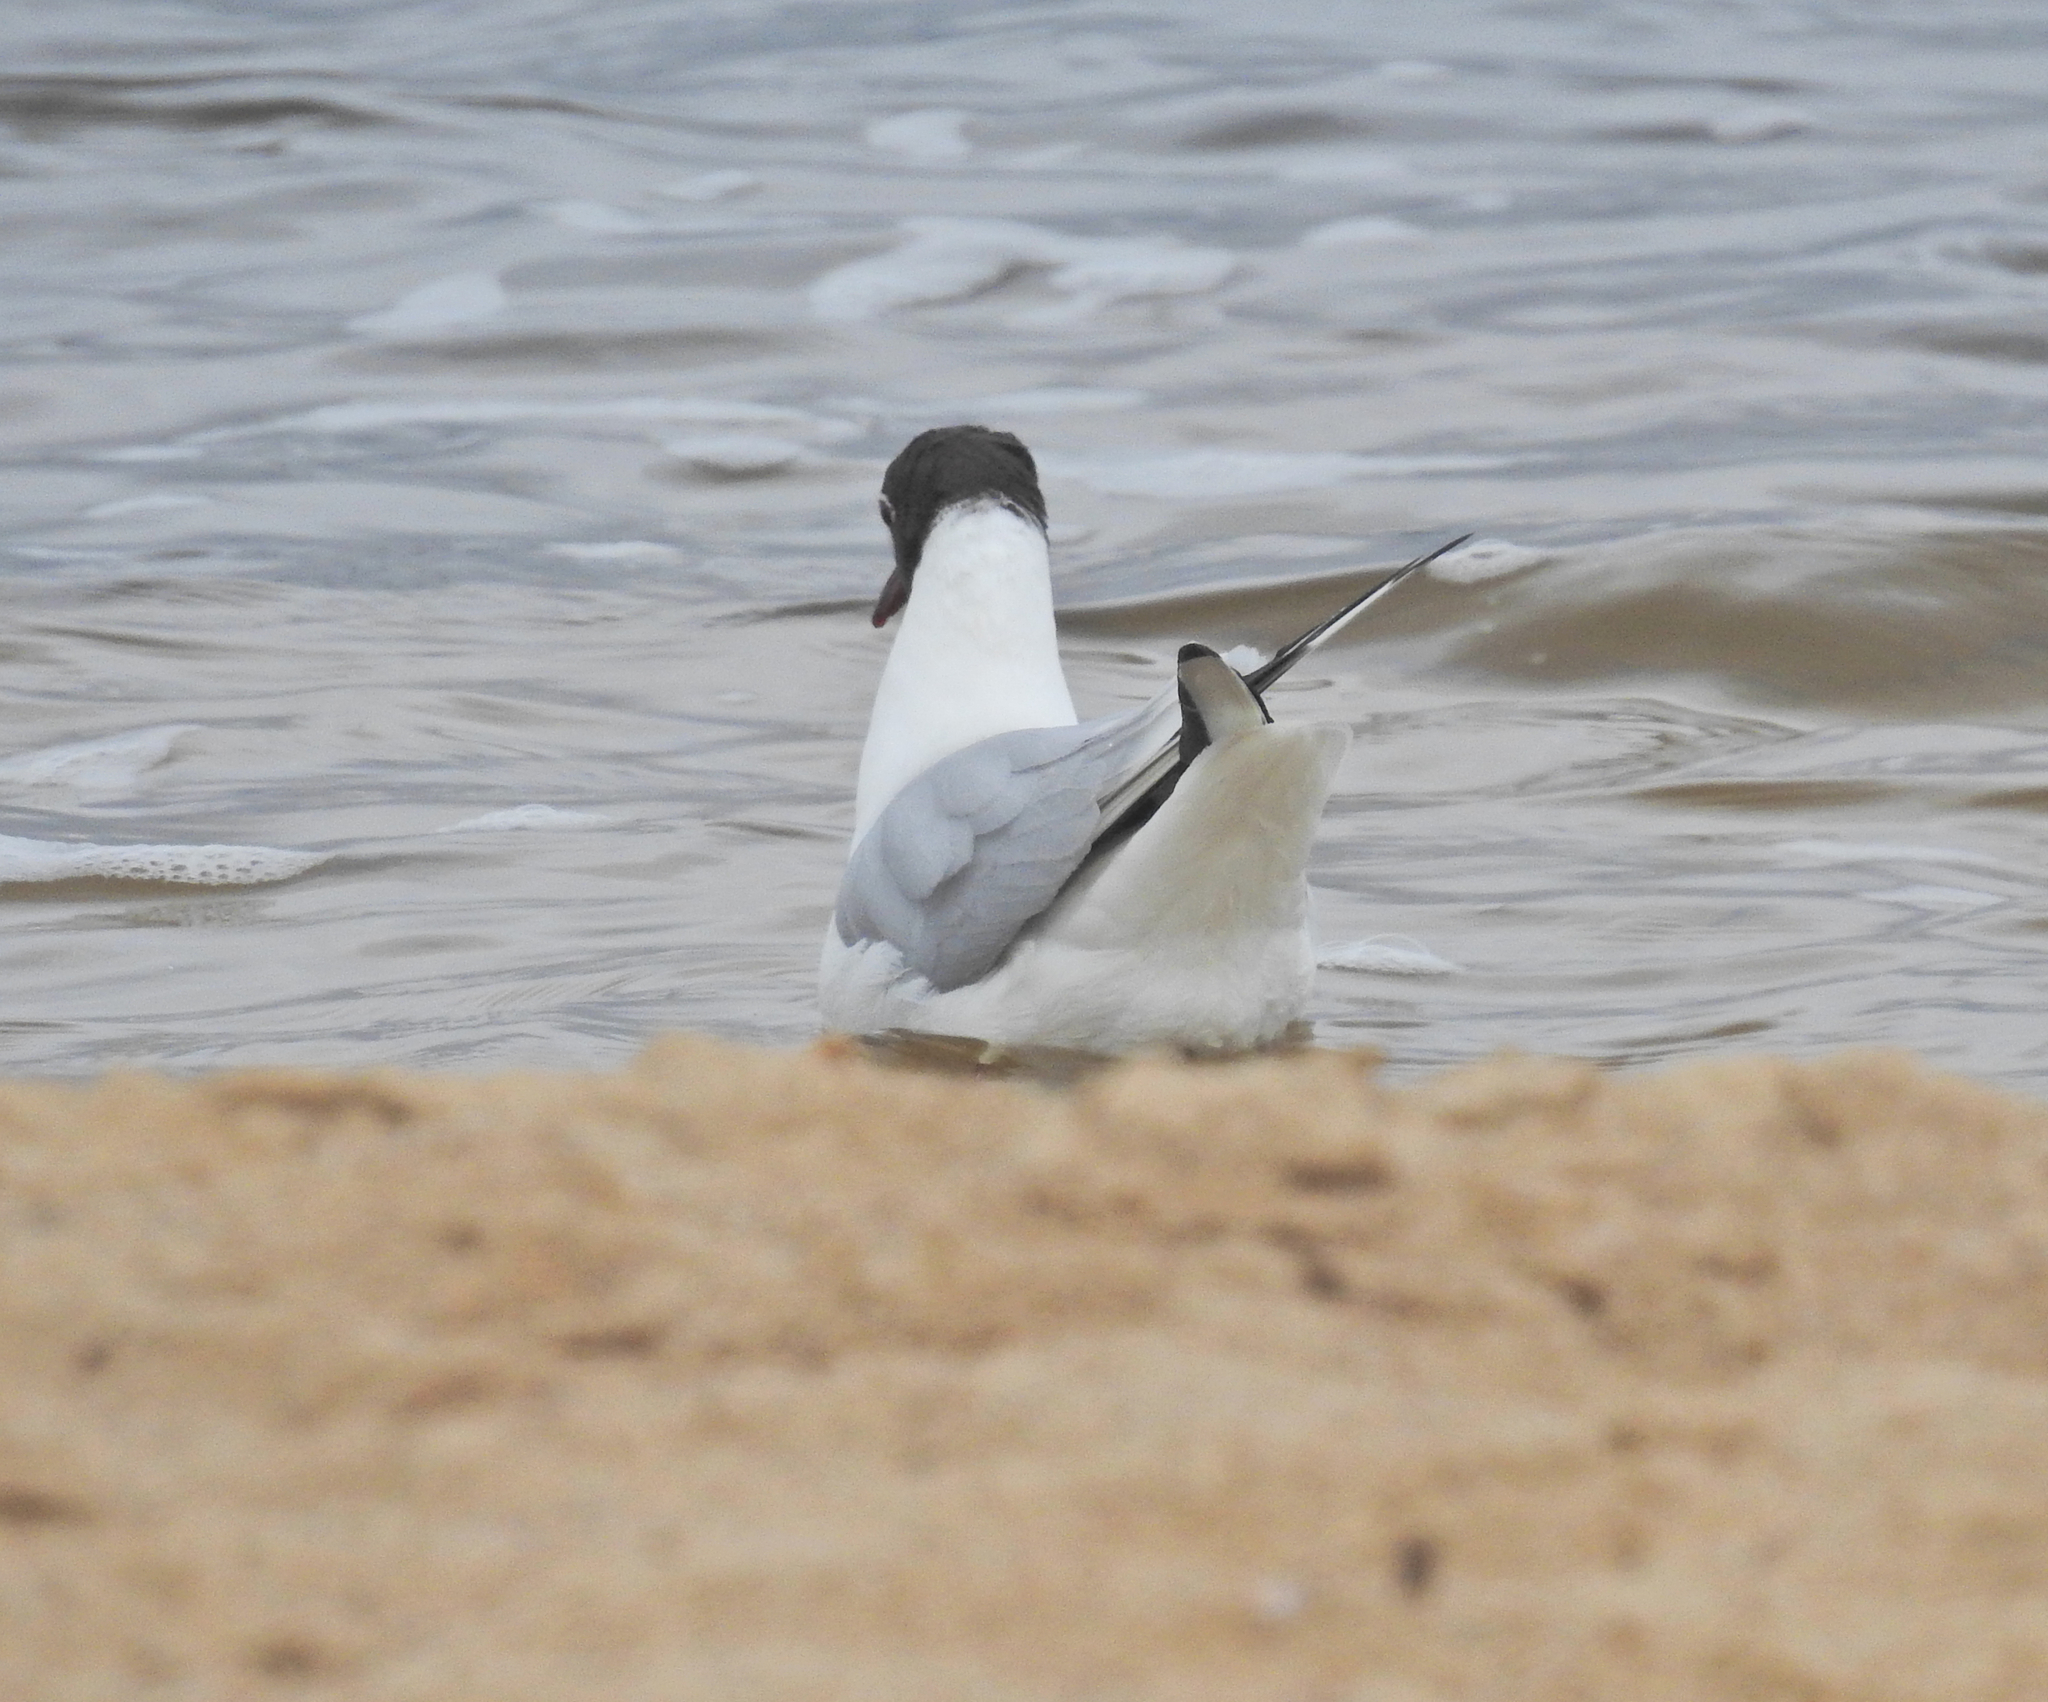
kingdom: Animalia
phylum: Chordata
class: Aves
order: Charadriiformes
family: Laridae
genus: Chroicocephalus
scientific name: Chroicocephalus ridibundus
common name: Black-headed gull
